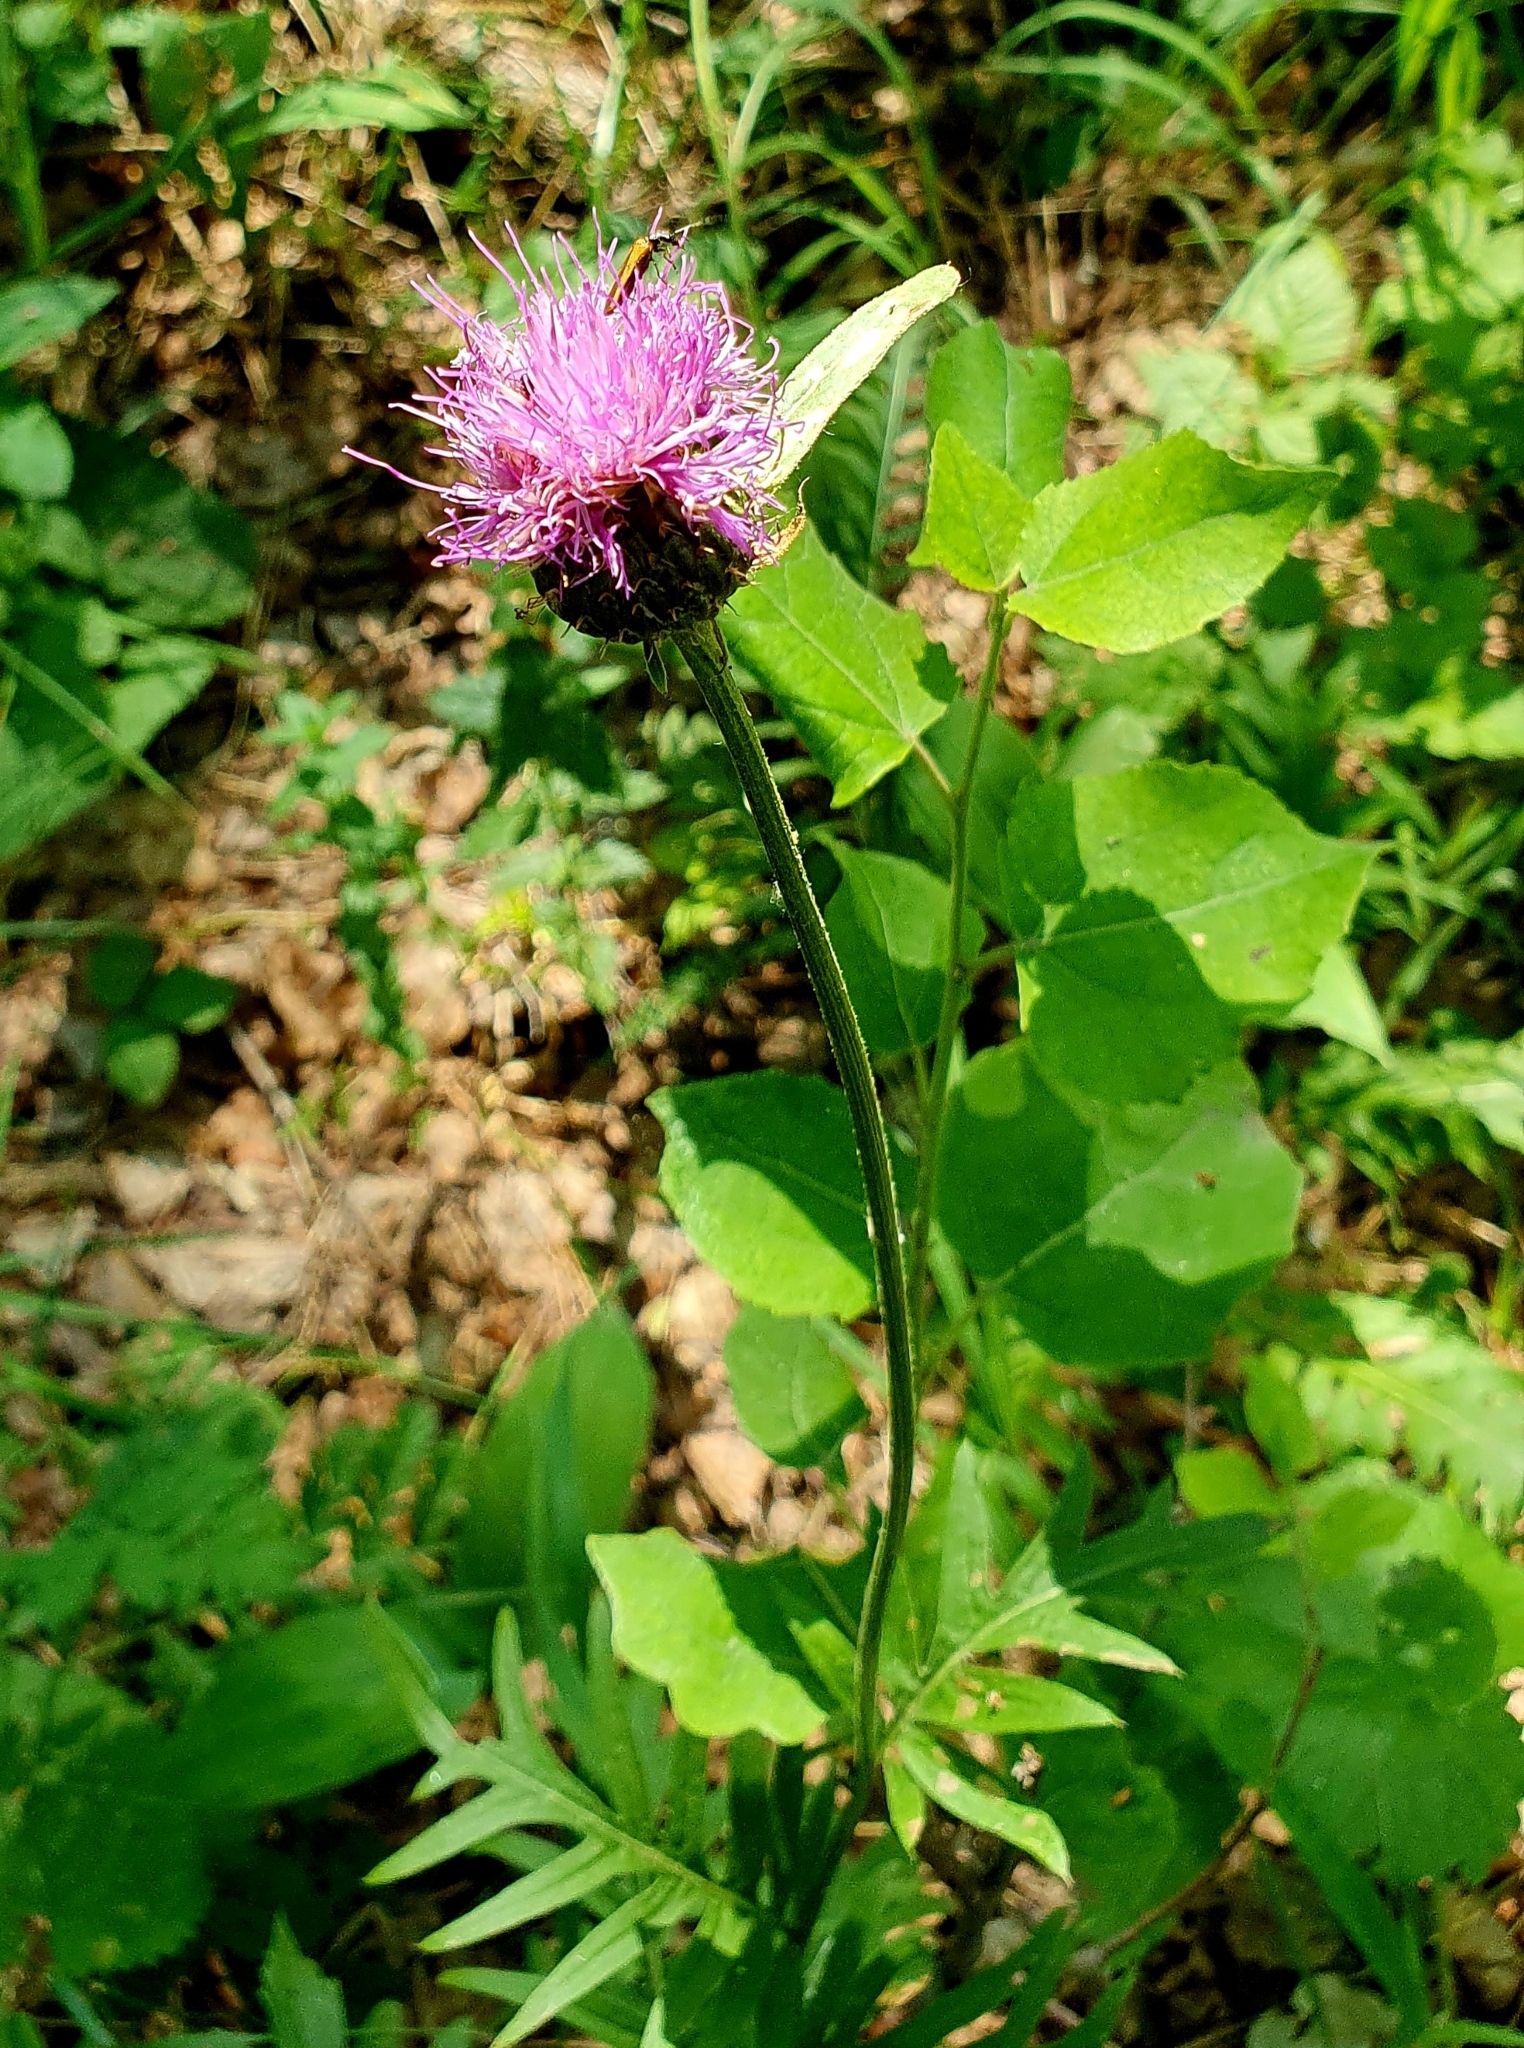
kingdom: Plantae
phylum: Tracheophyta
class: Magnoliopsida
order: Asterales
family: Asteraceae
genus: Klasea
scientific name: Klasea radiata
